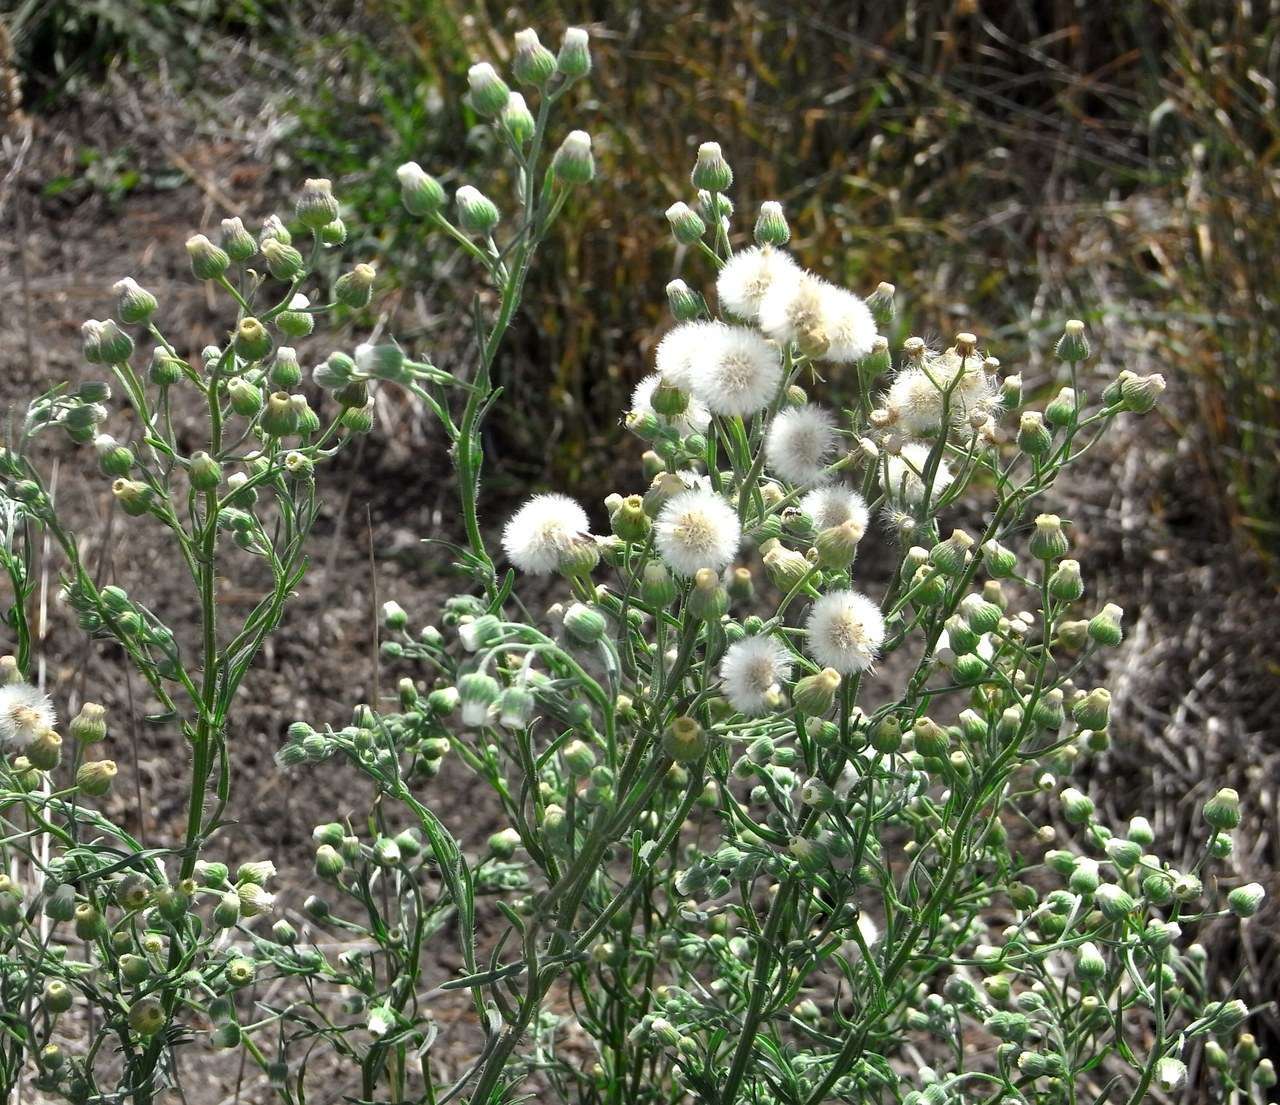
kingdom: Plantae
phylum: Tracheophyta
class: Magnoliopsida
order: Asterales
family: Asteraceae
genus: Erigeron
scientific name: Erigeron bonariensis
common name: Argentine fleabane
